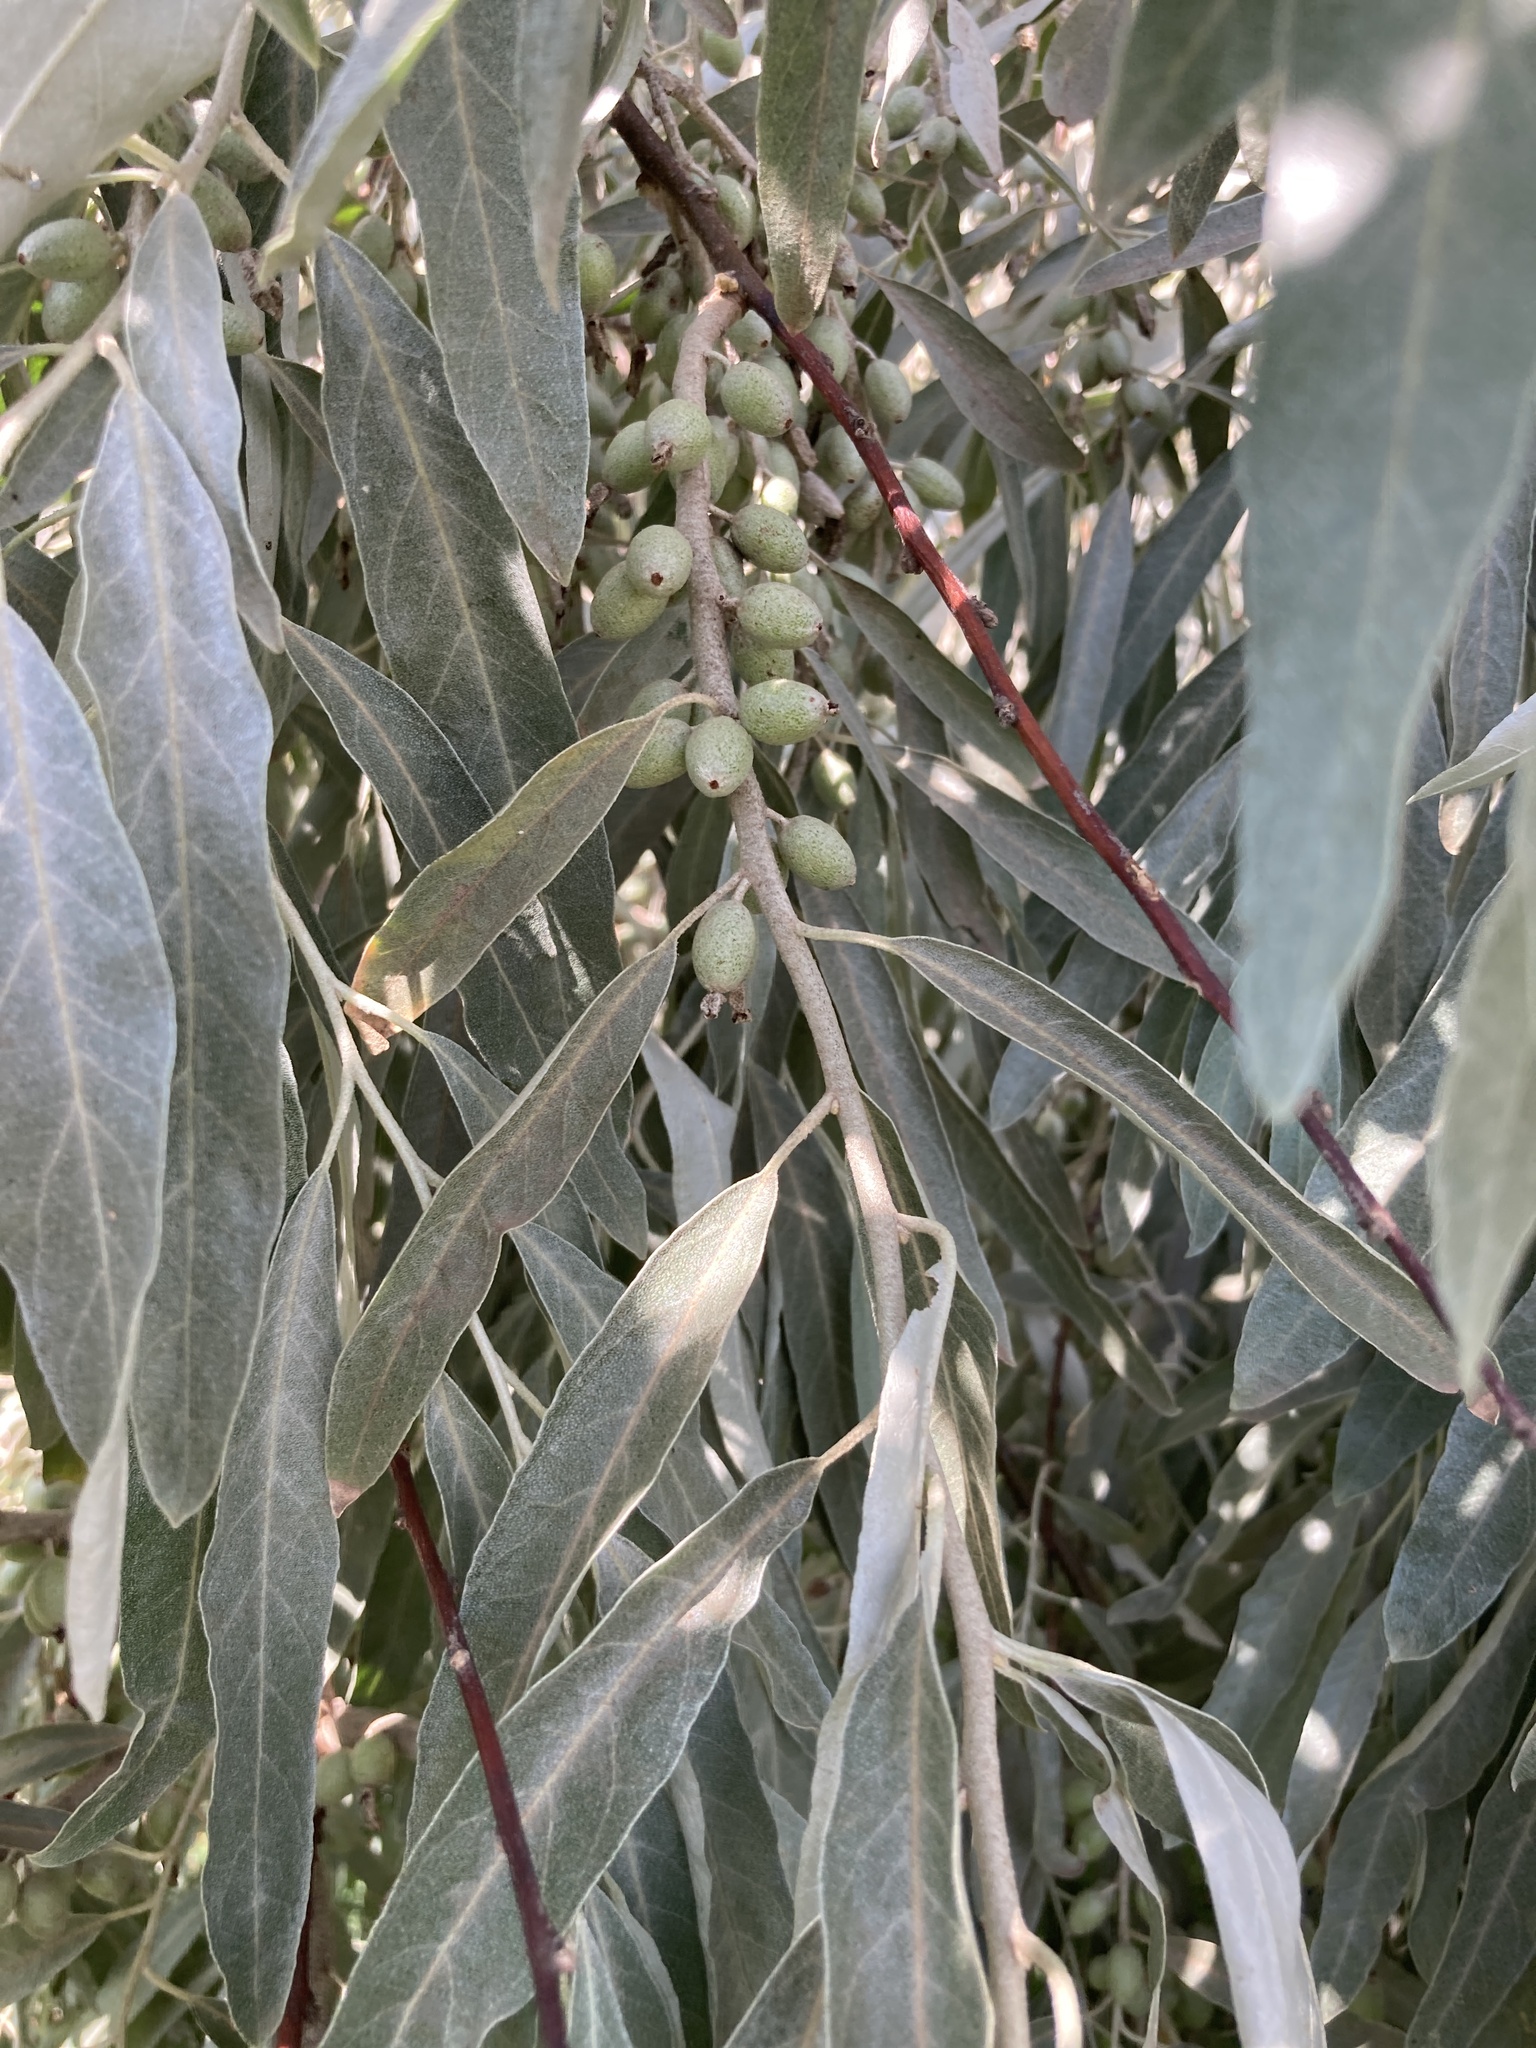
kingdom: Plantae
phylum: Tracheophyta
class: Magnoliopsida
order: Rosales
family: Elaeagnaceae
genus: Elaeagnus
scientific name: Elaeagnus angustifolia
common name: Russian olive
